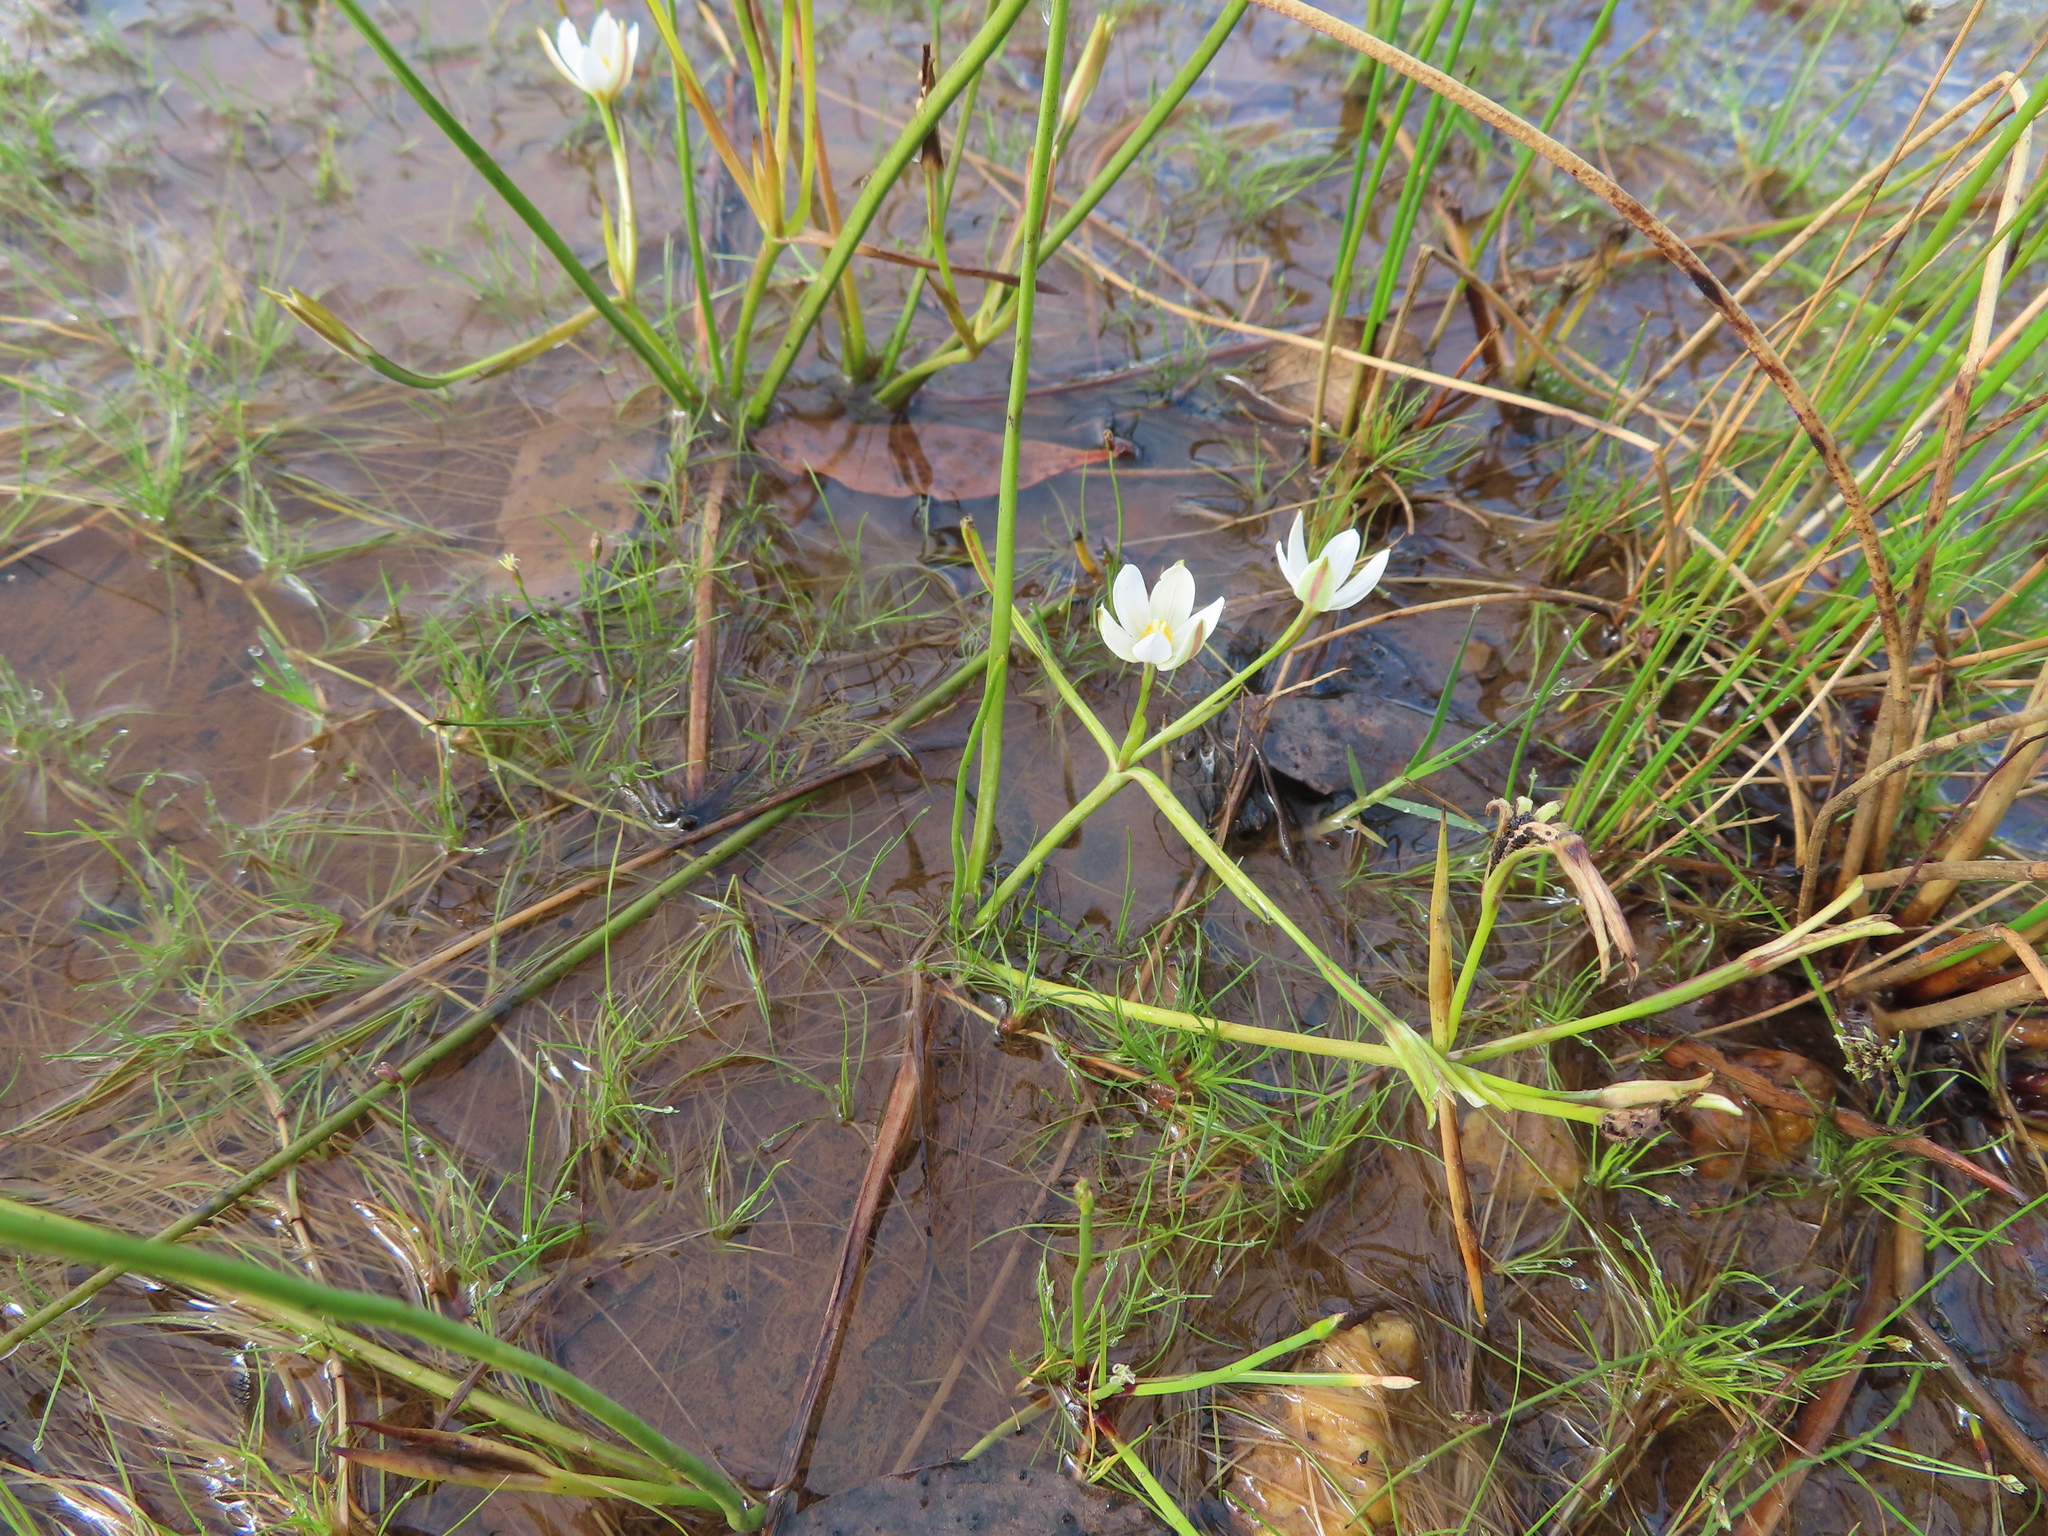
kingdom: Plantae
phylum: Tracheophyta
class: Liliopsida
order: Asparagales
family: Hypoxidaceae
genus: Pauridia
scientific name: Pauridia aquatica
